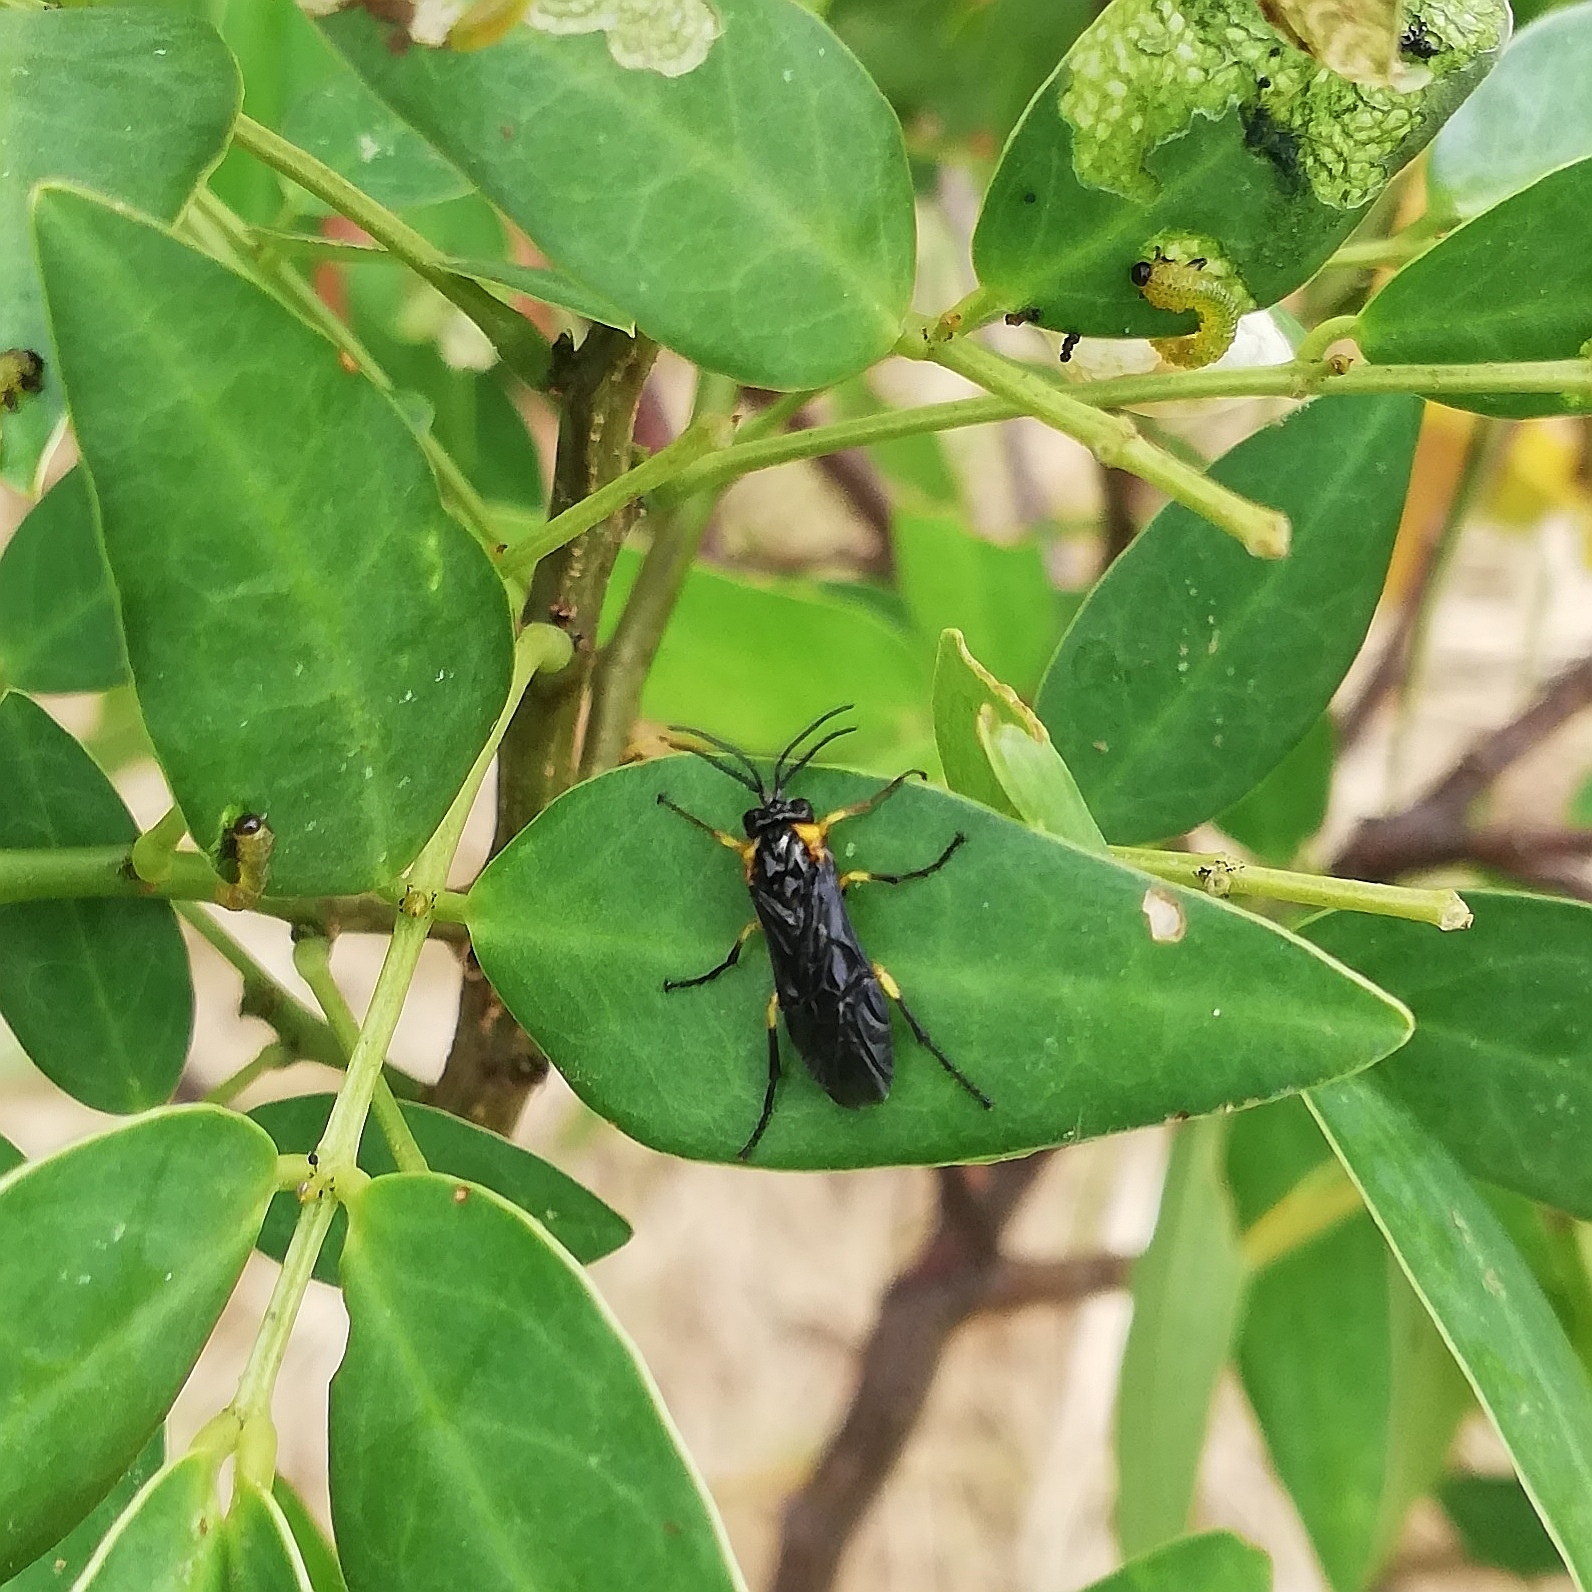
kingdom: Animalia
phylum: Arthropoda
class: Insecta
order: Hymenoptera
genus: Adurgoa
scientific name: Adurgoa
